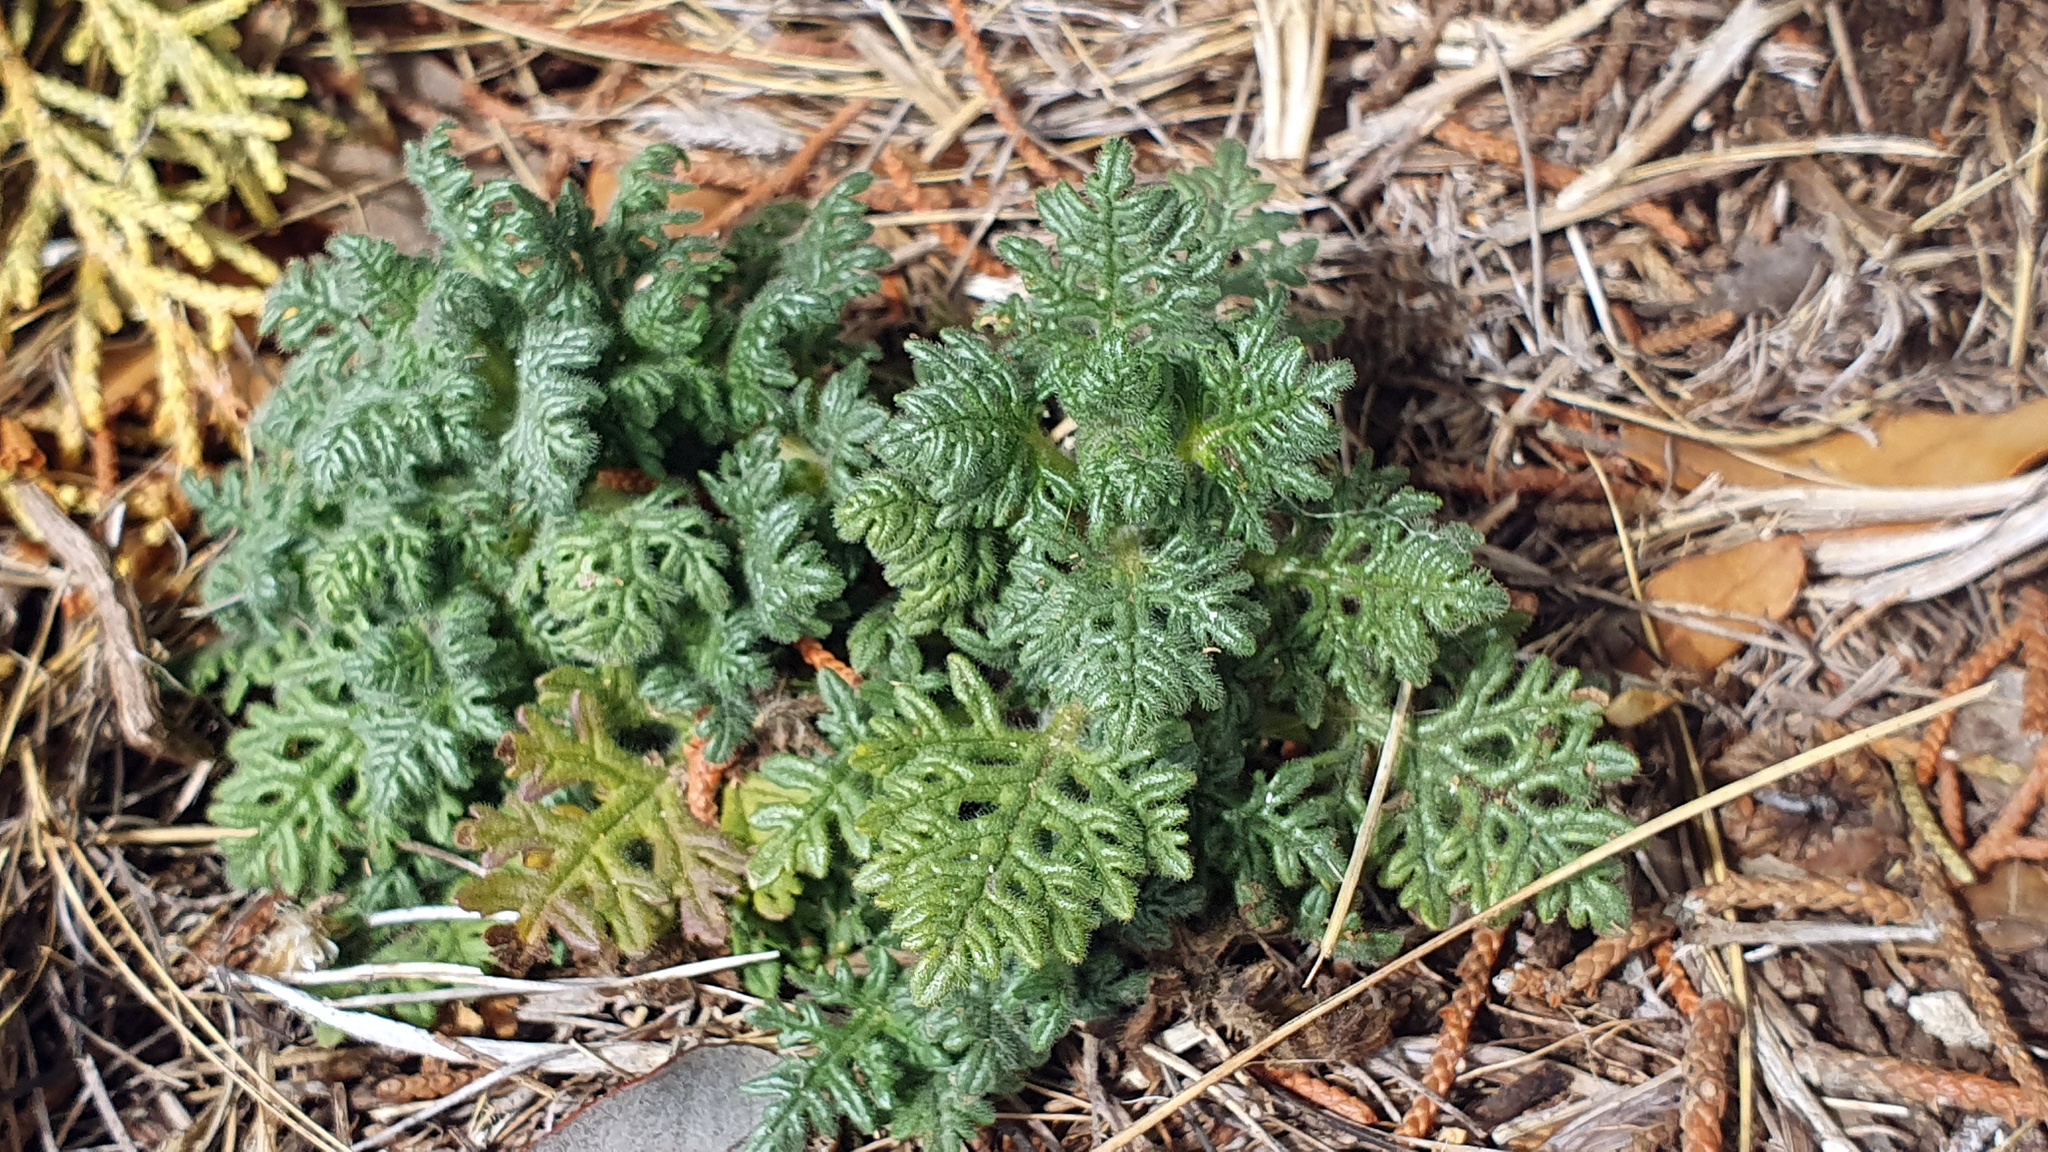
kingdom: Plantae
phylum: Tracheophyta
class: Magnoliopsida
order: Lamiales
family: Lamiaceae
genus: Teucrium
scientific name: Teucrium botrys
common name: Cut-leaved germander
